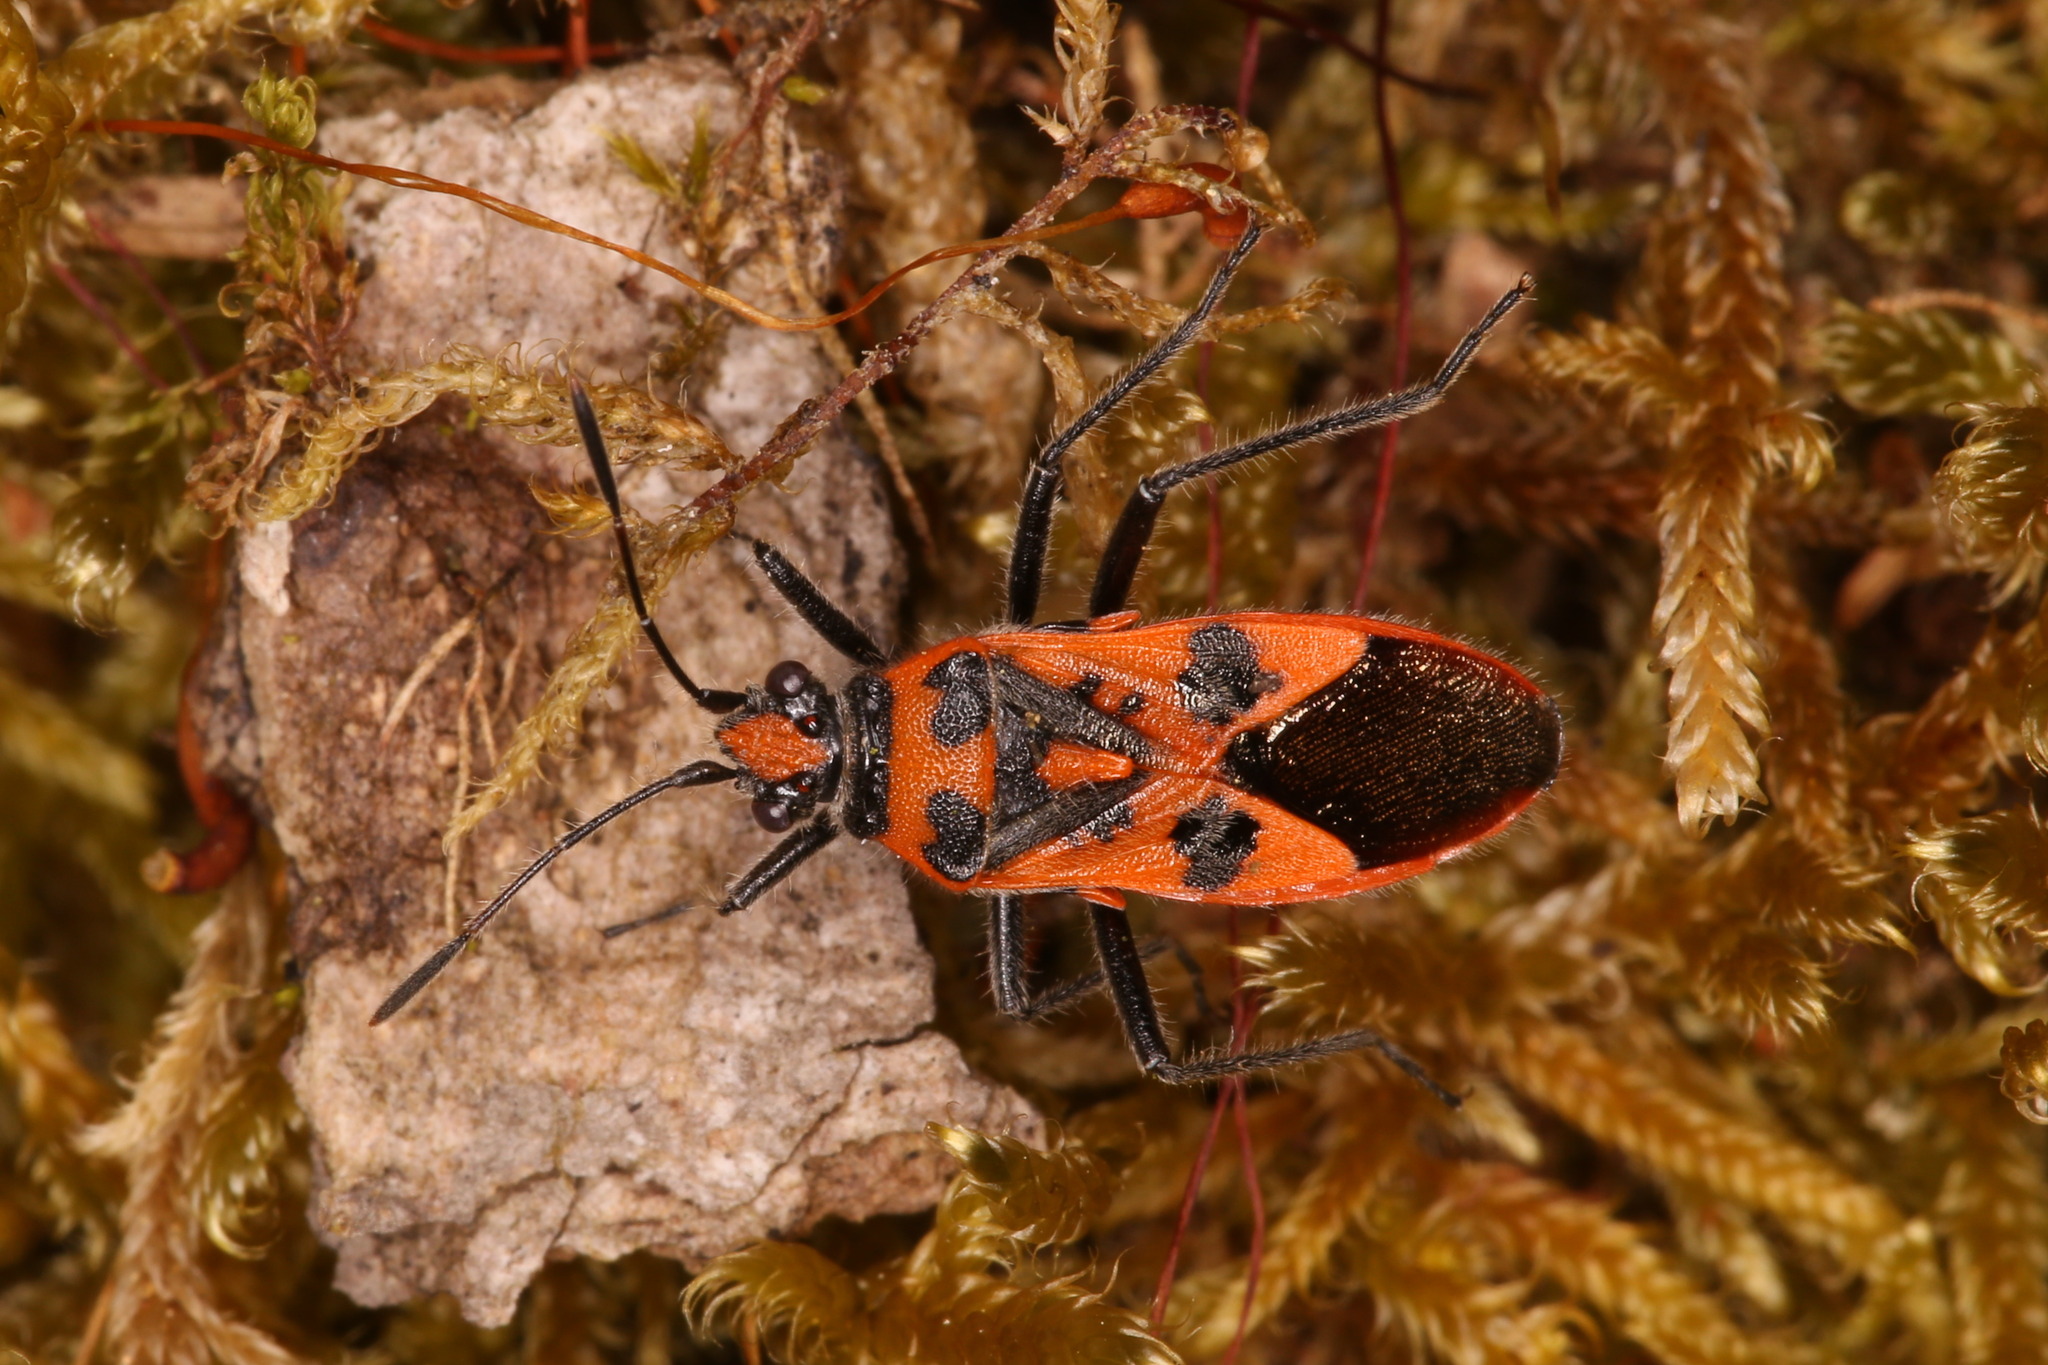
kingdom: Animalia
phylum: Arthropoda
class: Insecta
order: Hemiptera
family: Rhopalidae
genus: Corizus
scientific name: Corizus hyoscyami
